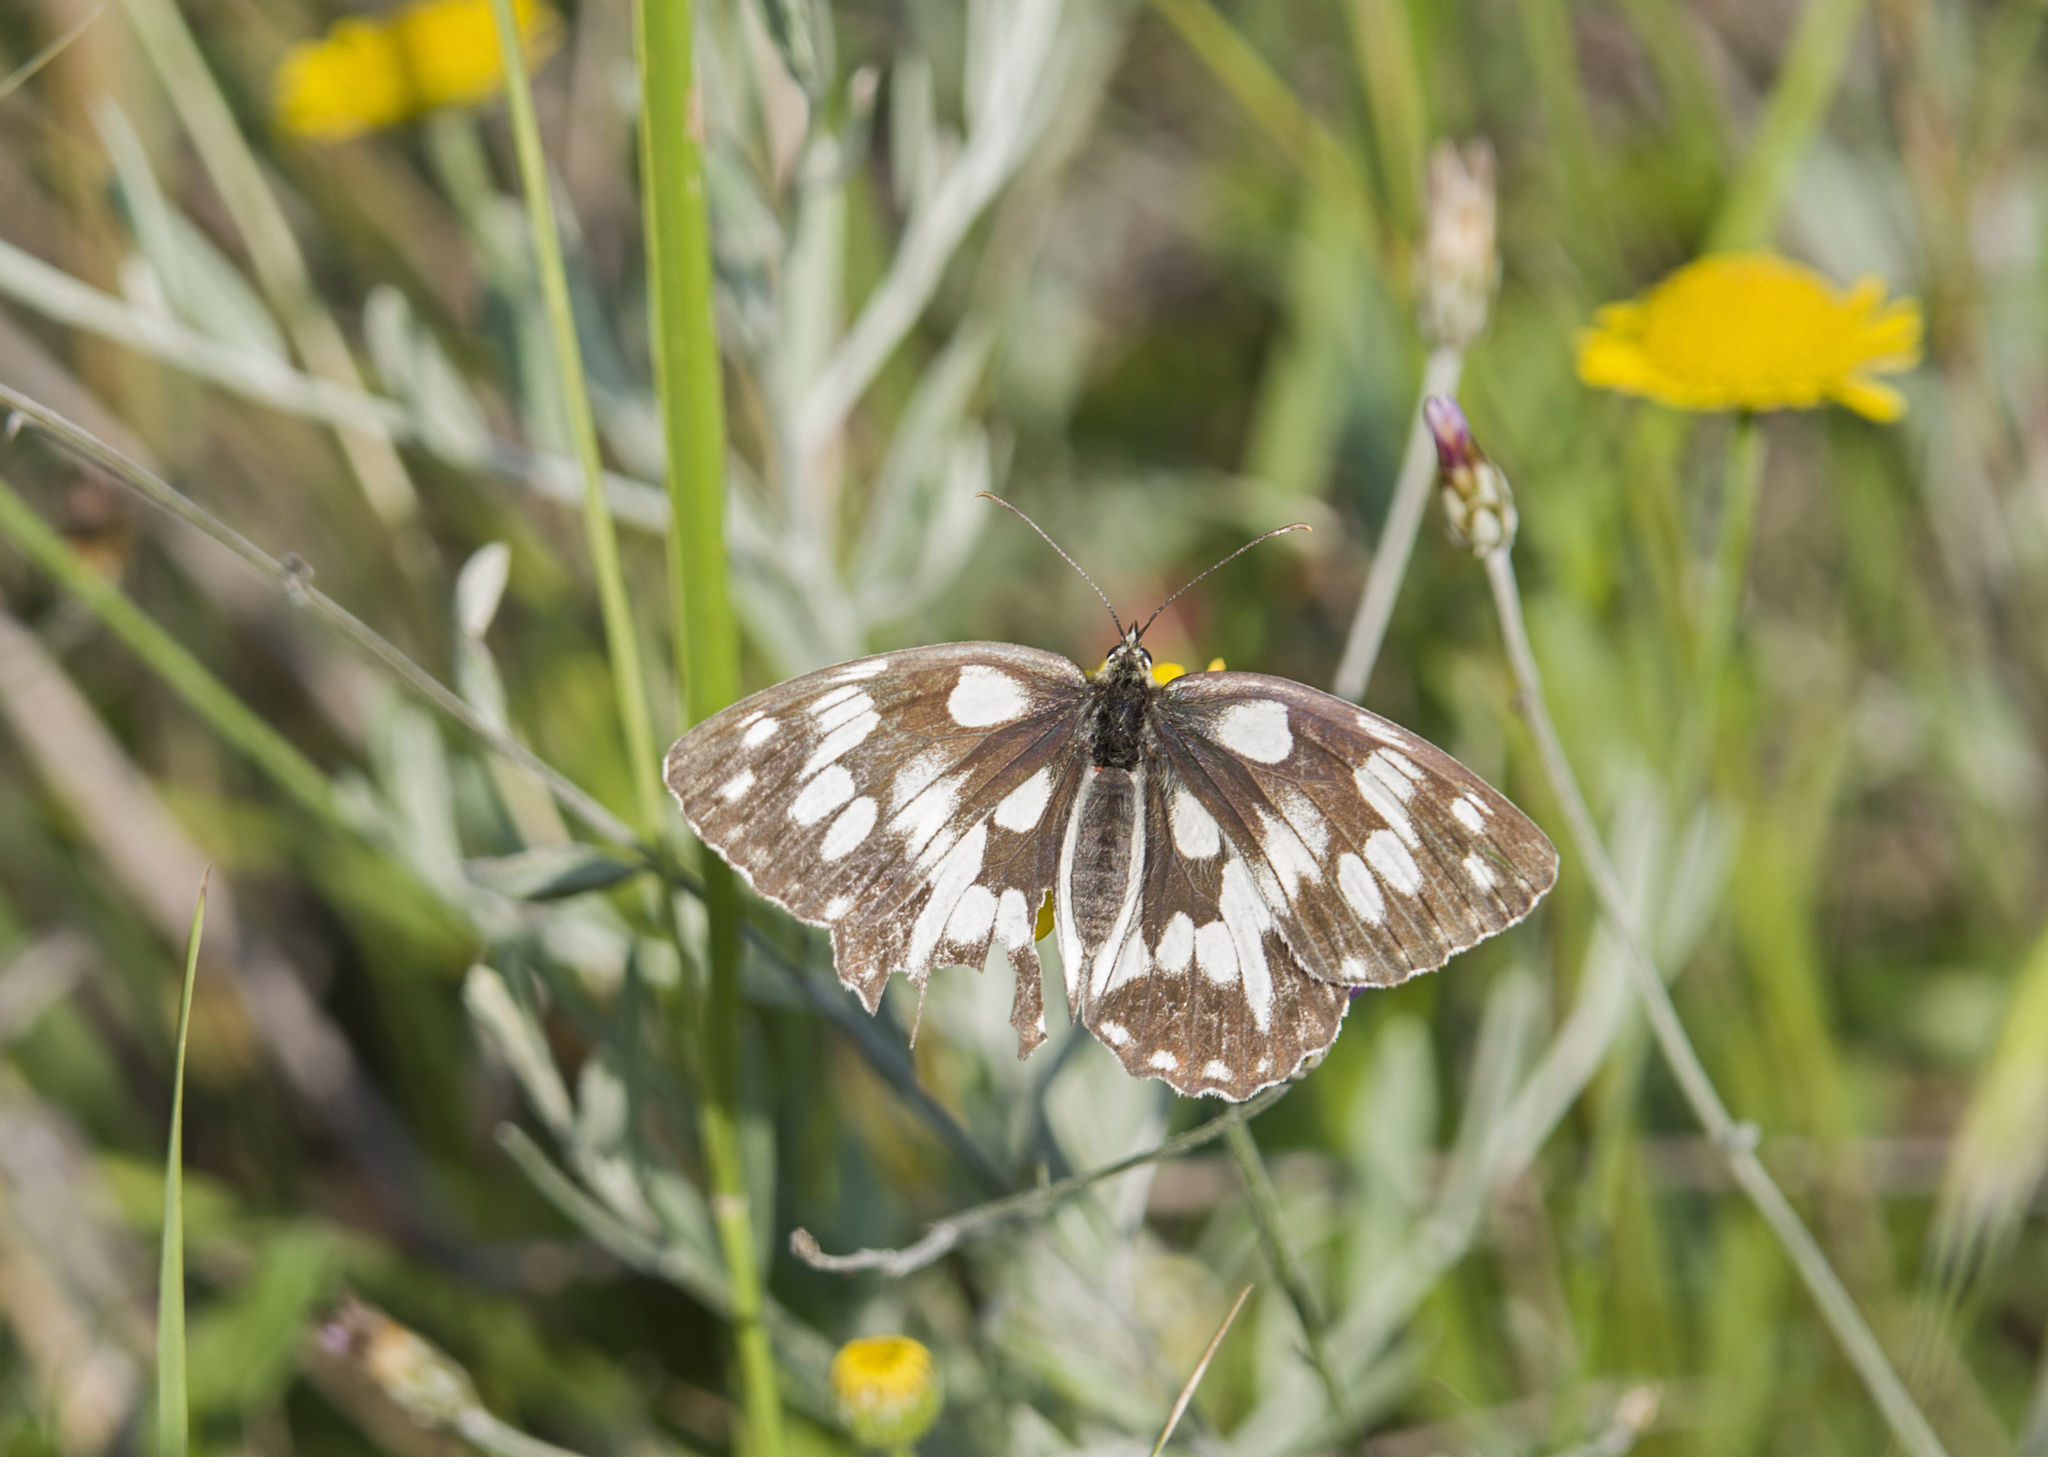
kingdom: Animalia
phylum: Arthropoda
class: Insecta
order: Lepidoptera
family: Nymphalidae
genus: Melanargia
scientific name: Melanargia galathea
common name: Marbled white
